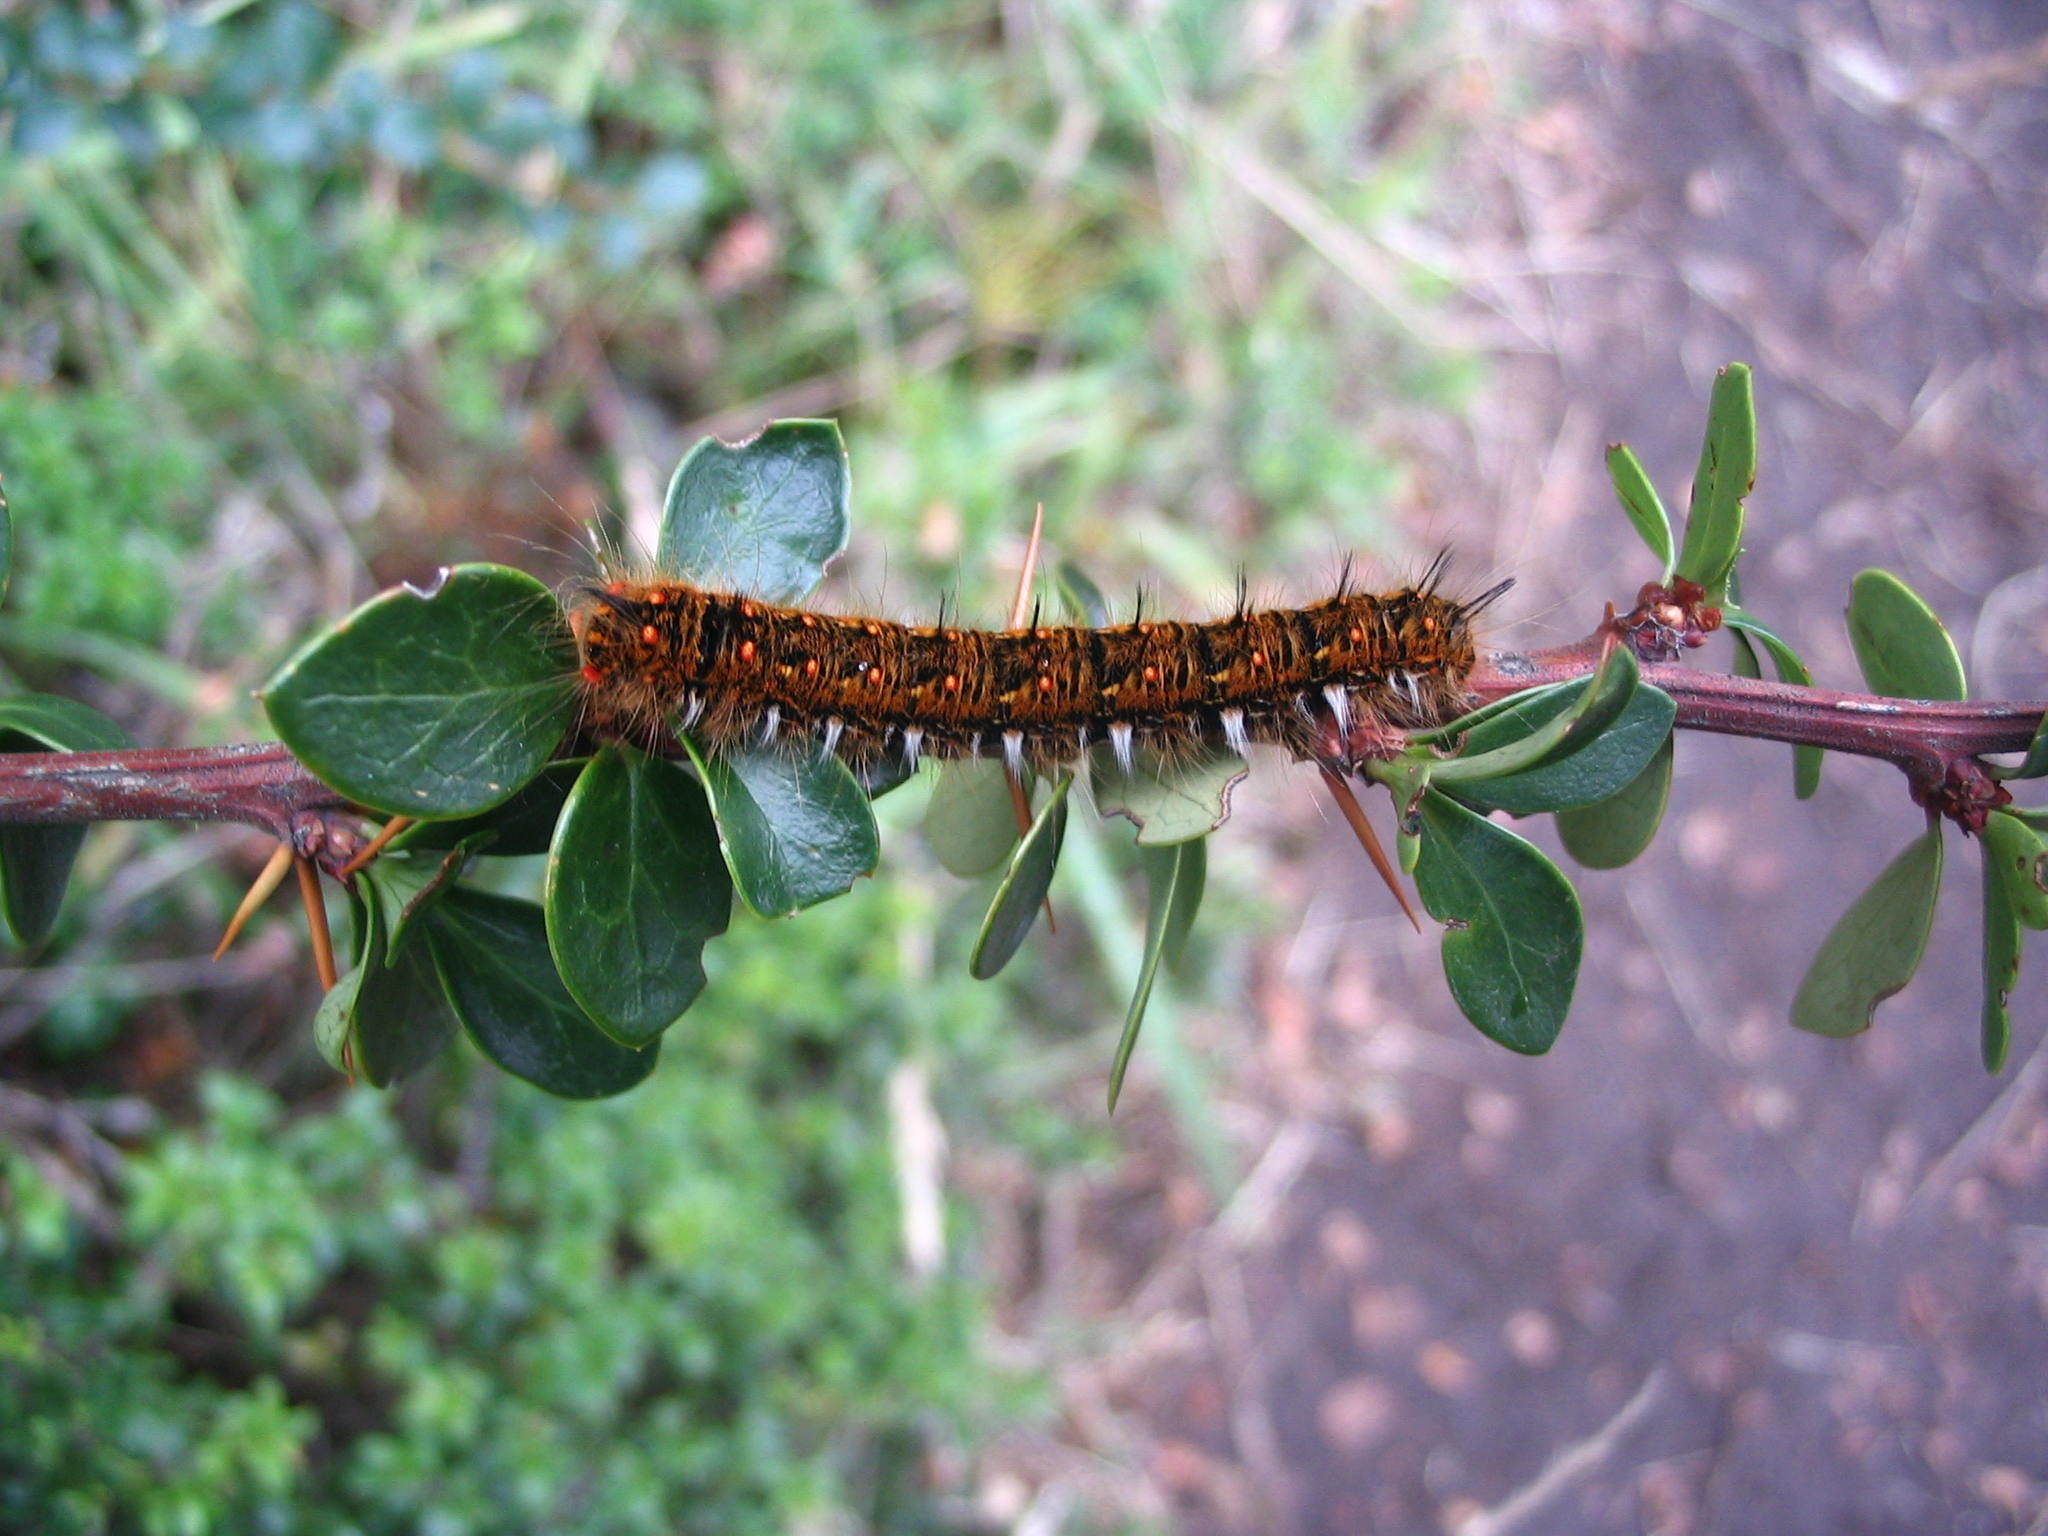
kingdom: Animalia
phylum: Arthropoda
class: Insecta
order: Lepidoptera
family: Lasiocampidae
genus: Macromphalia
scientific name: Macromphalia ancilla
